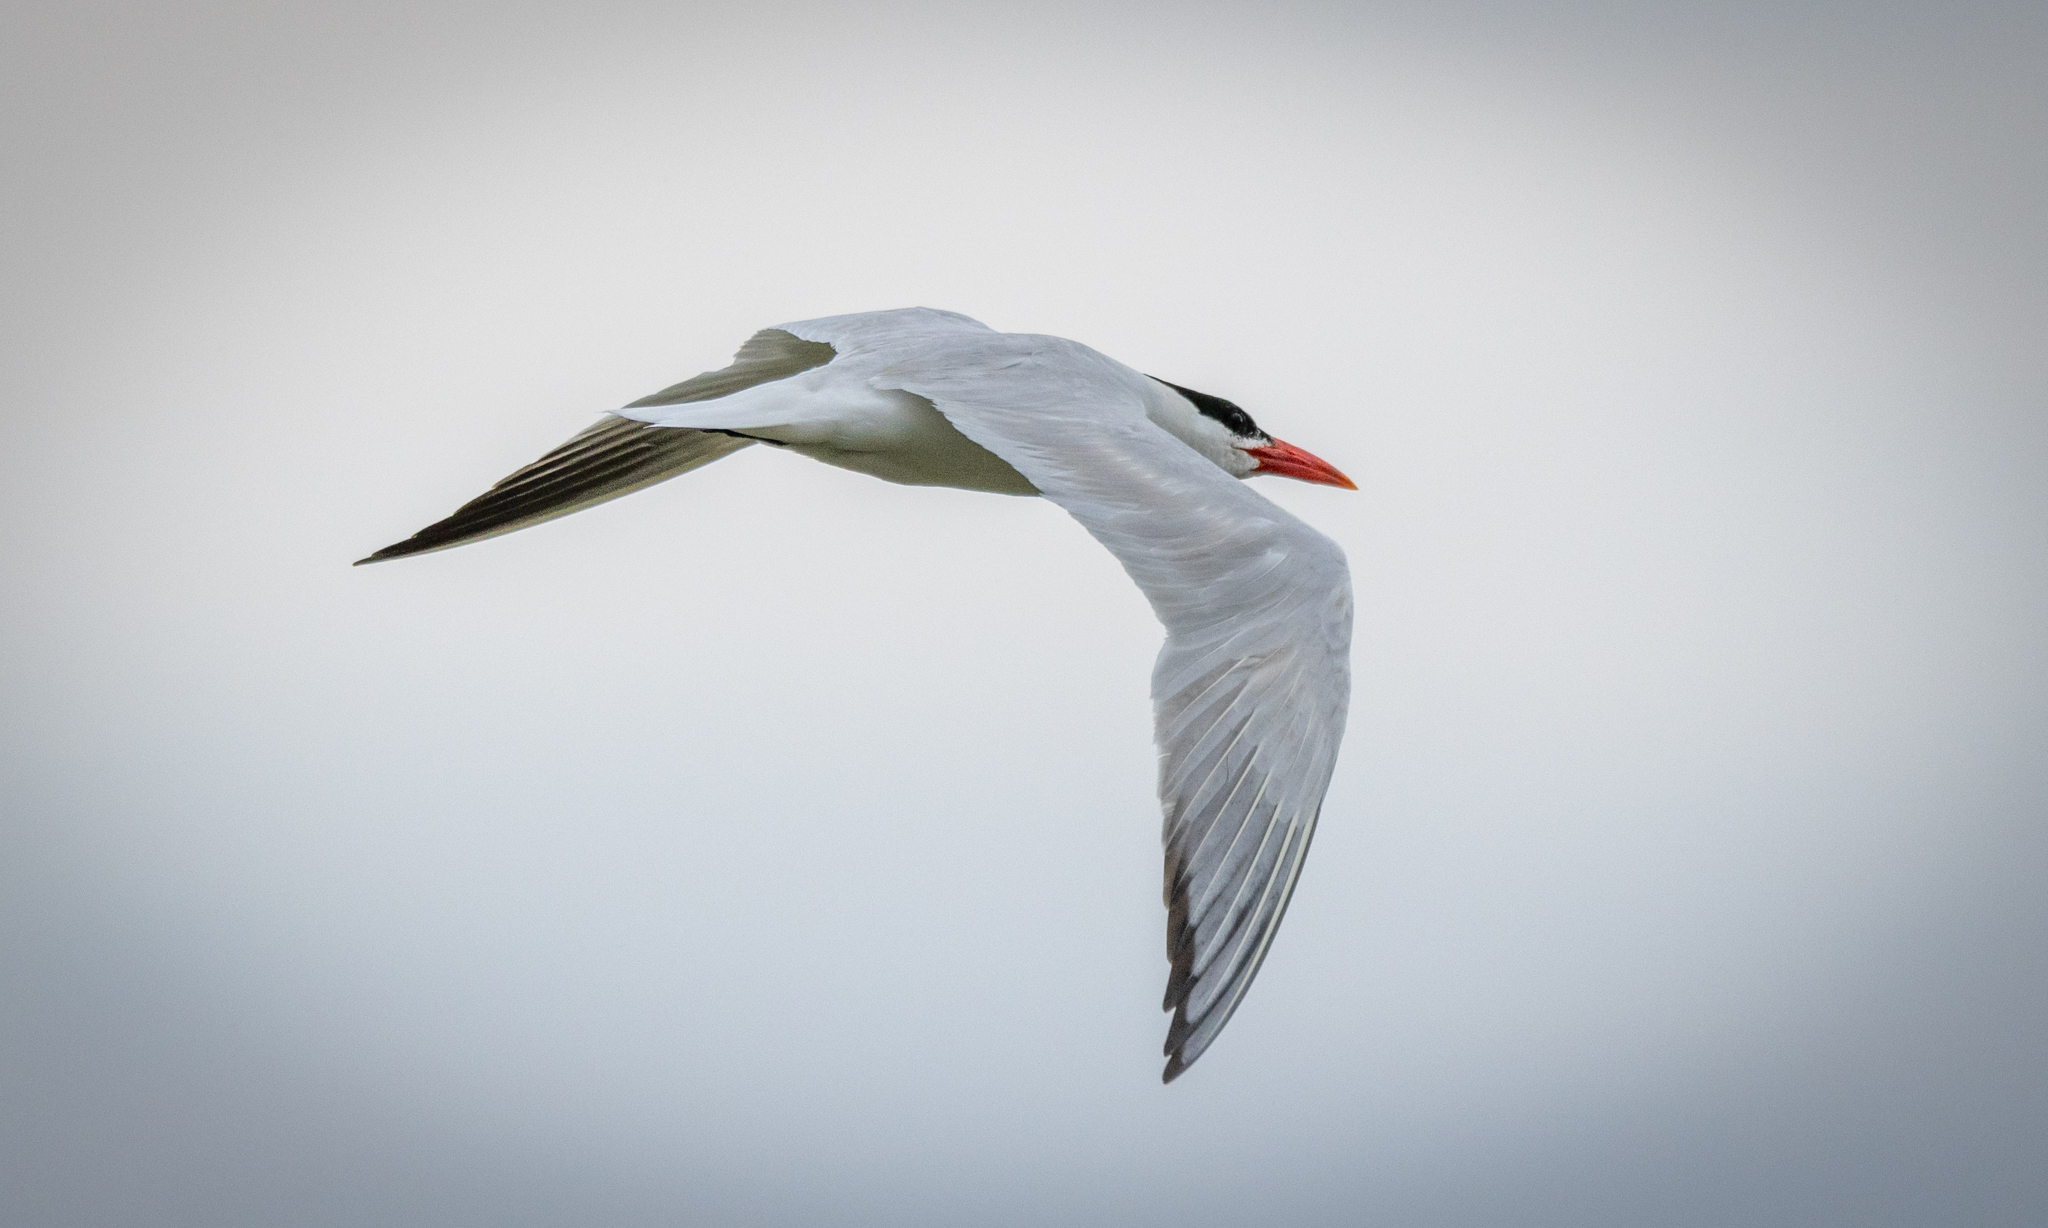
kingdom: Animalia
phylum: Chordata
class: Aves
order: Charadriiformes
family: Laridae
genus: Hydroprogne
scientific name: Hydroprogne caspia
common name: Caspian tern
